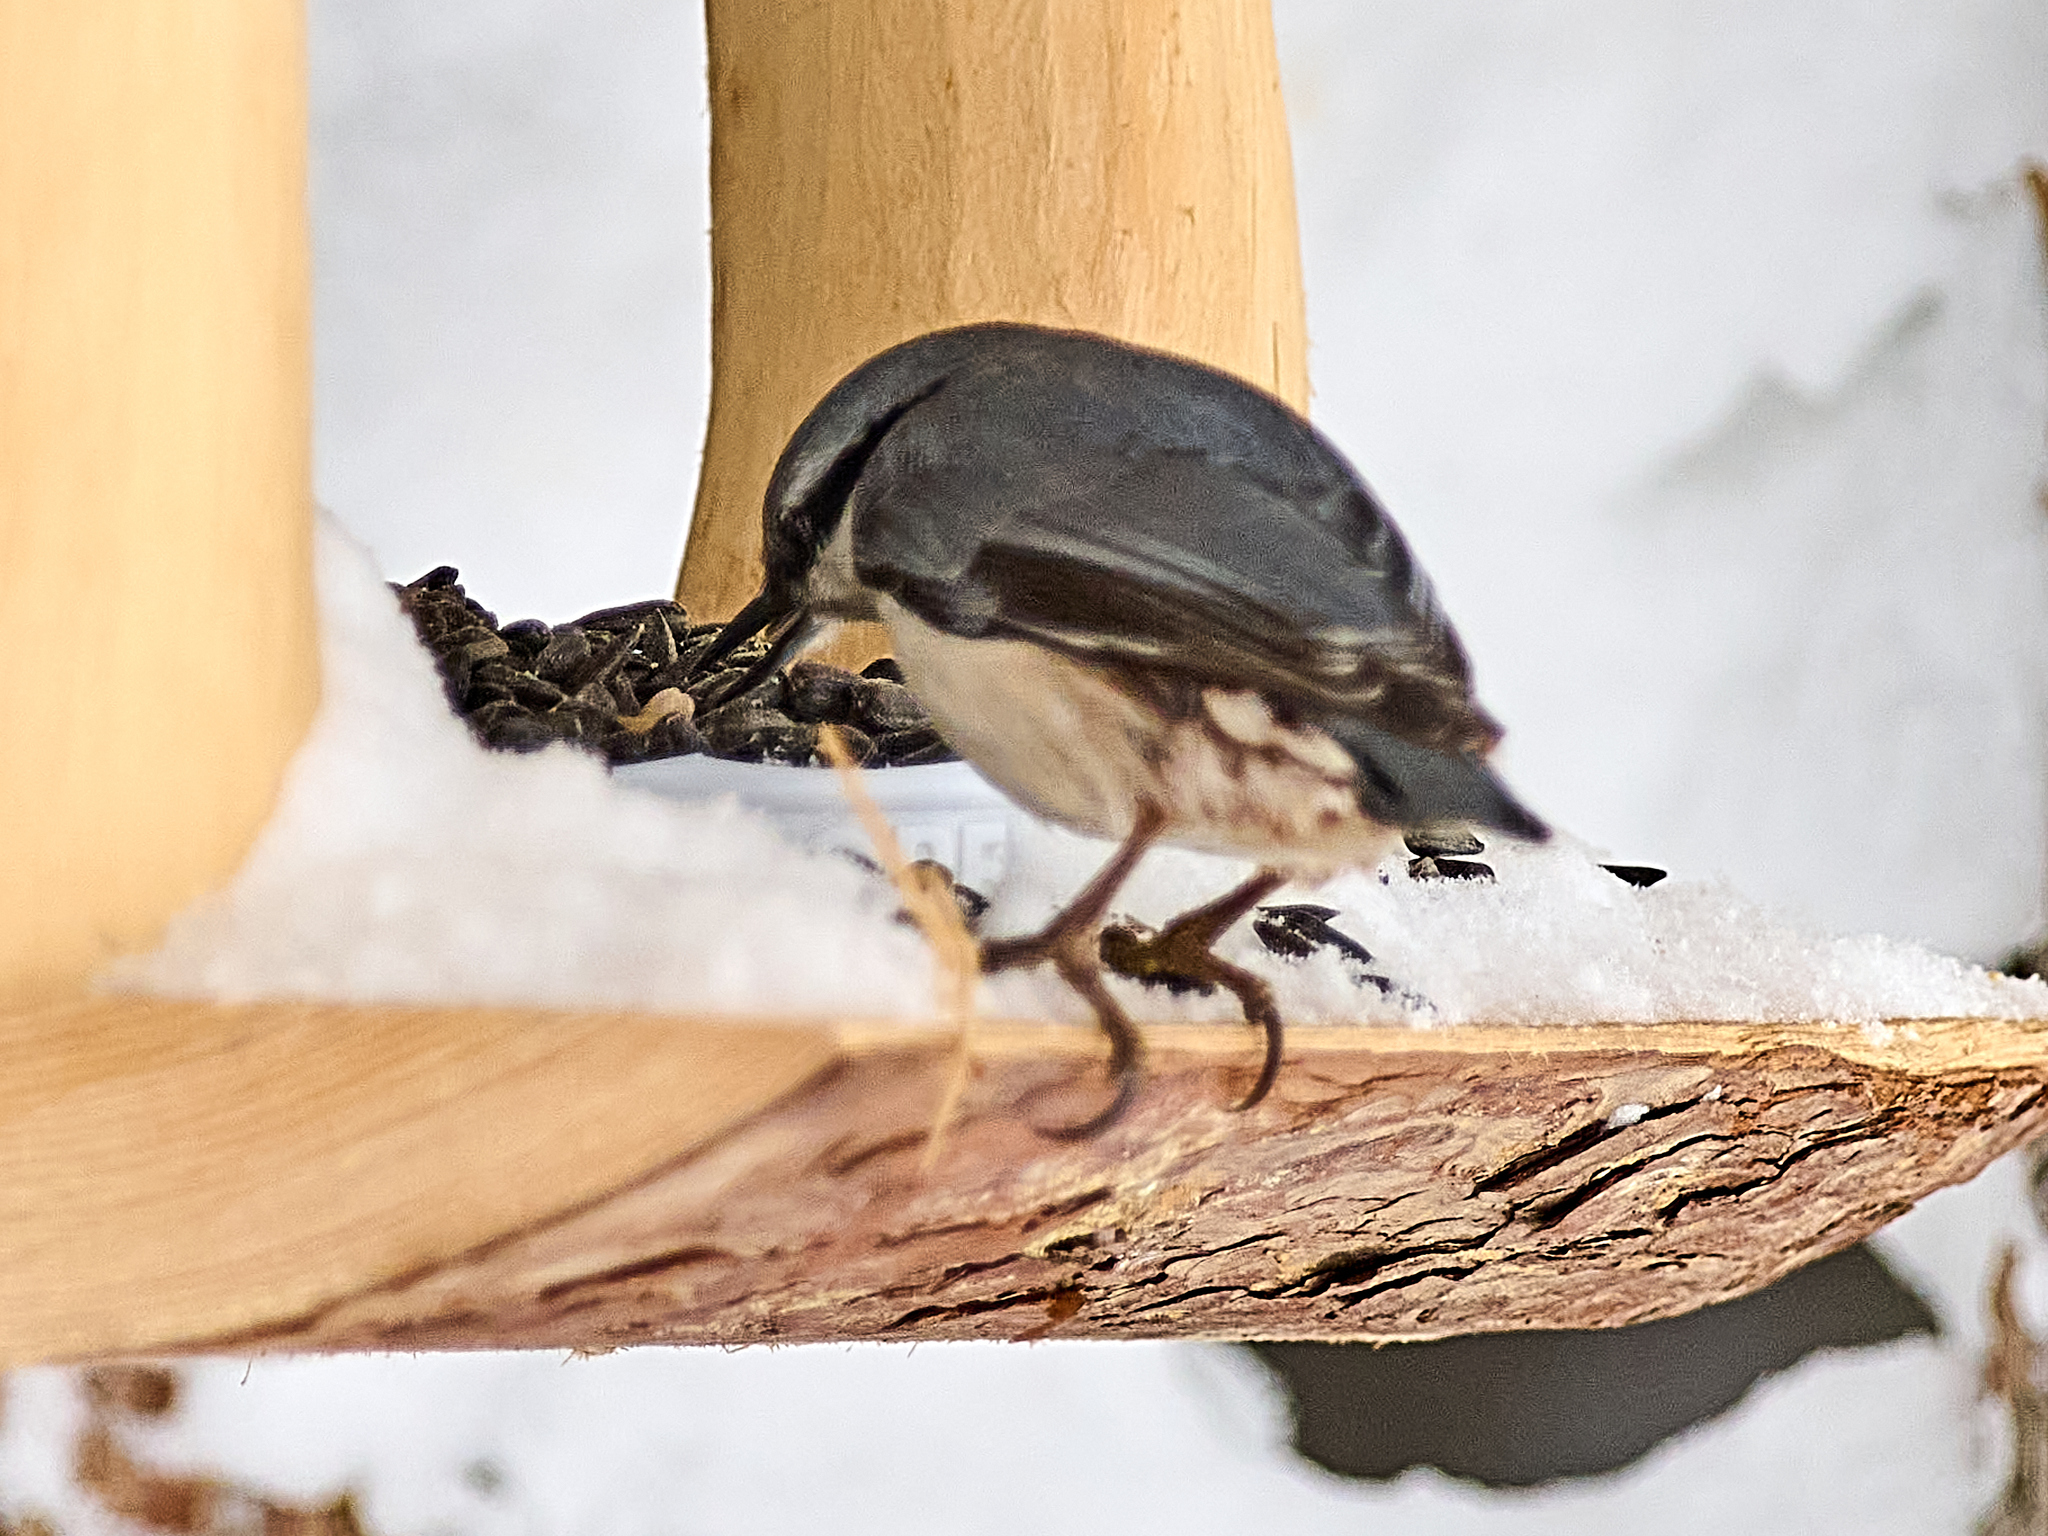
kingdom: Animalia
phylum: Chordata
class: Aves
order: Passeriformes
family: Sittidae
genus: Sitta
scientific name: Sitta europaea
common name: Eurasian nuthatch
